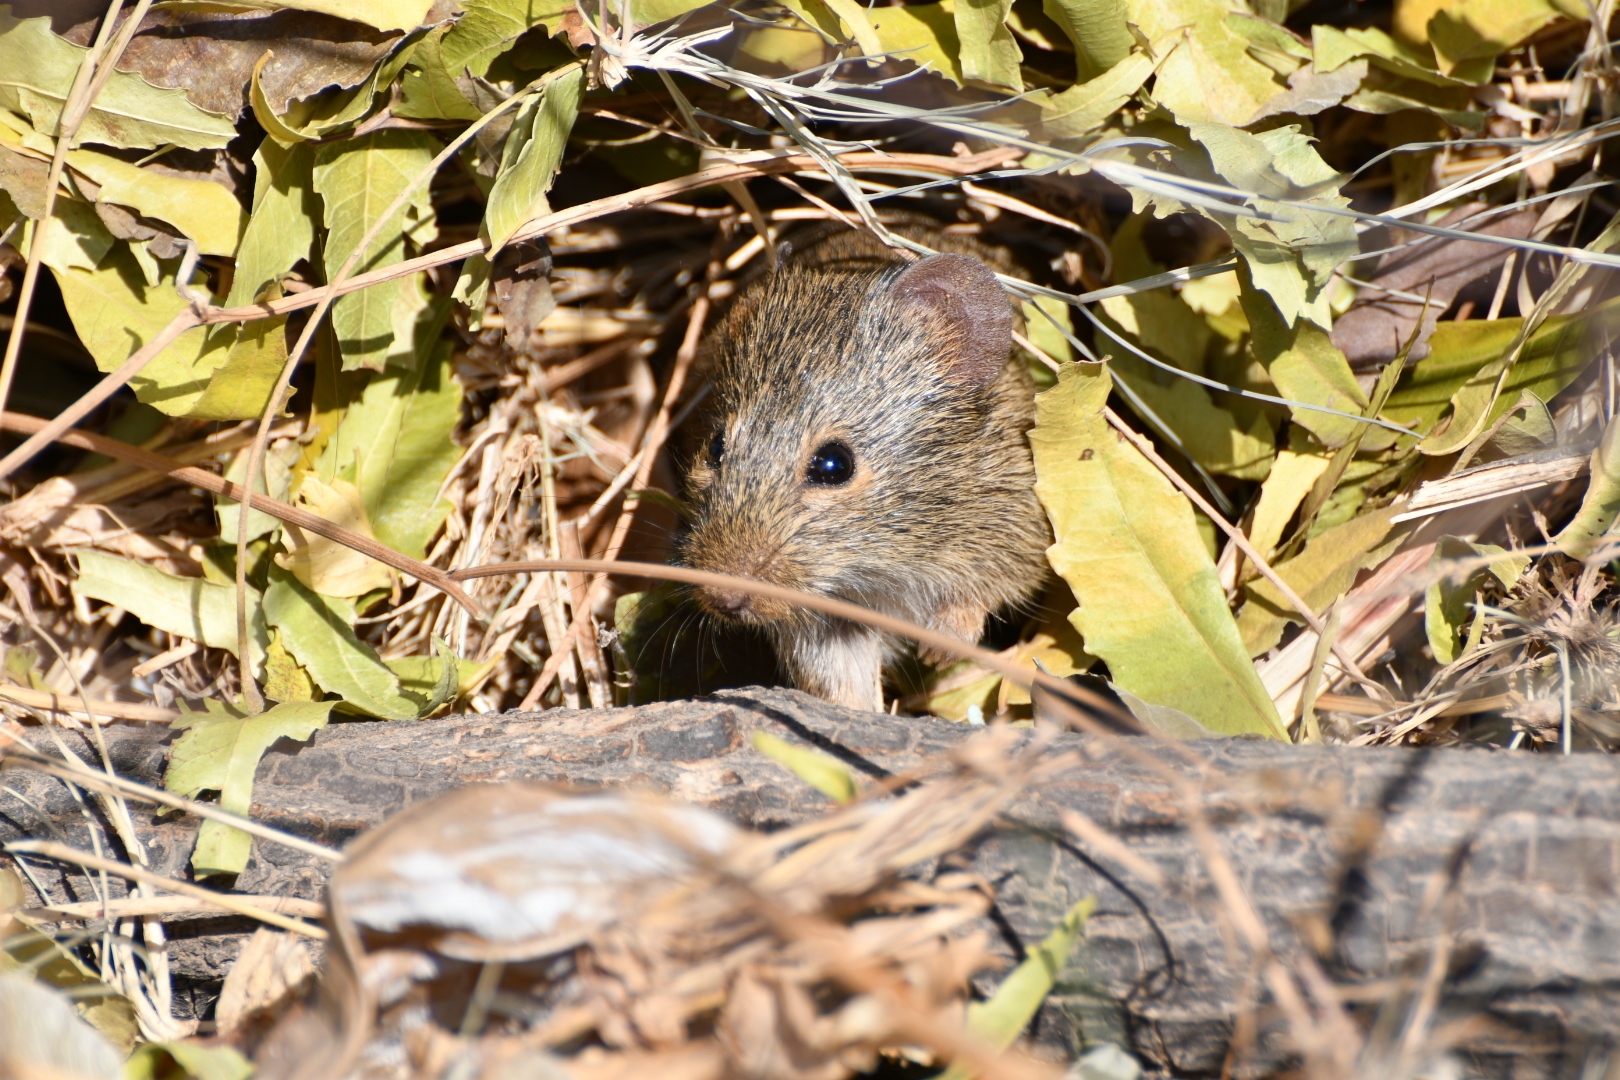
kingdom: Animalia
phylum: Chordata
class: Mammalia
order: Rodentia
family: Muridae
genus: Golunda
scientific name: Golunda ellioti
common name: Indian bush rat
